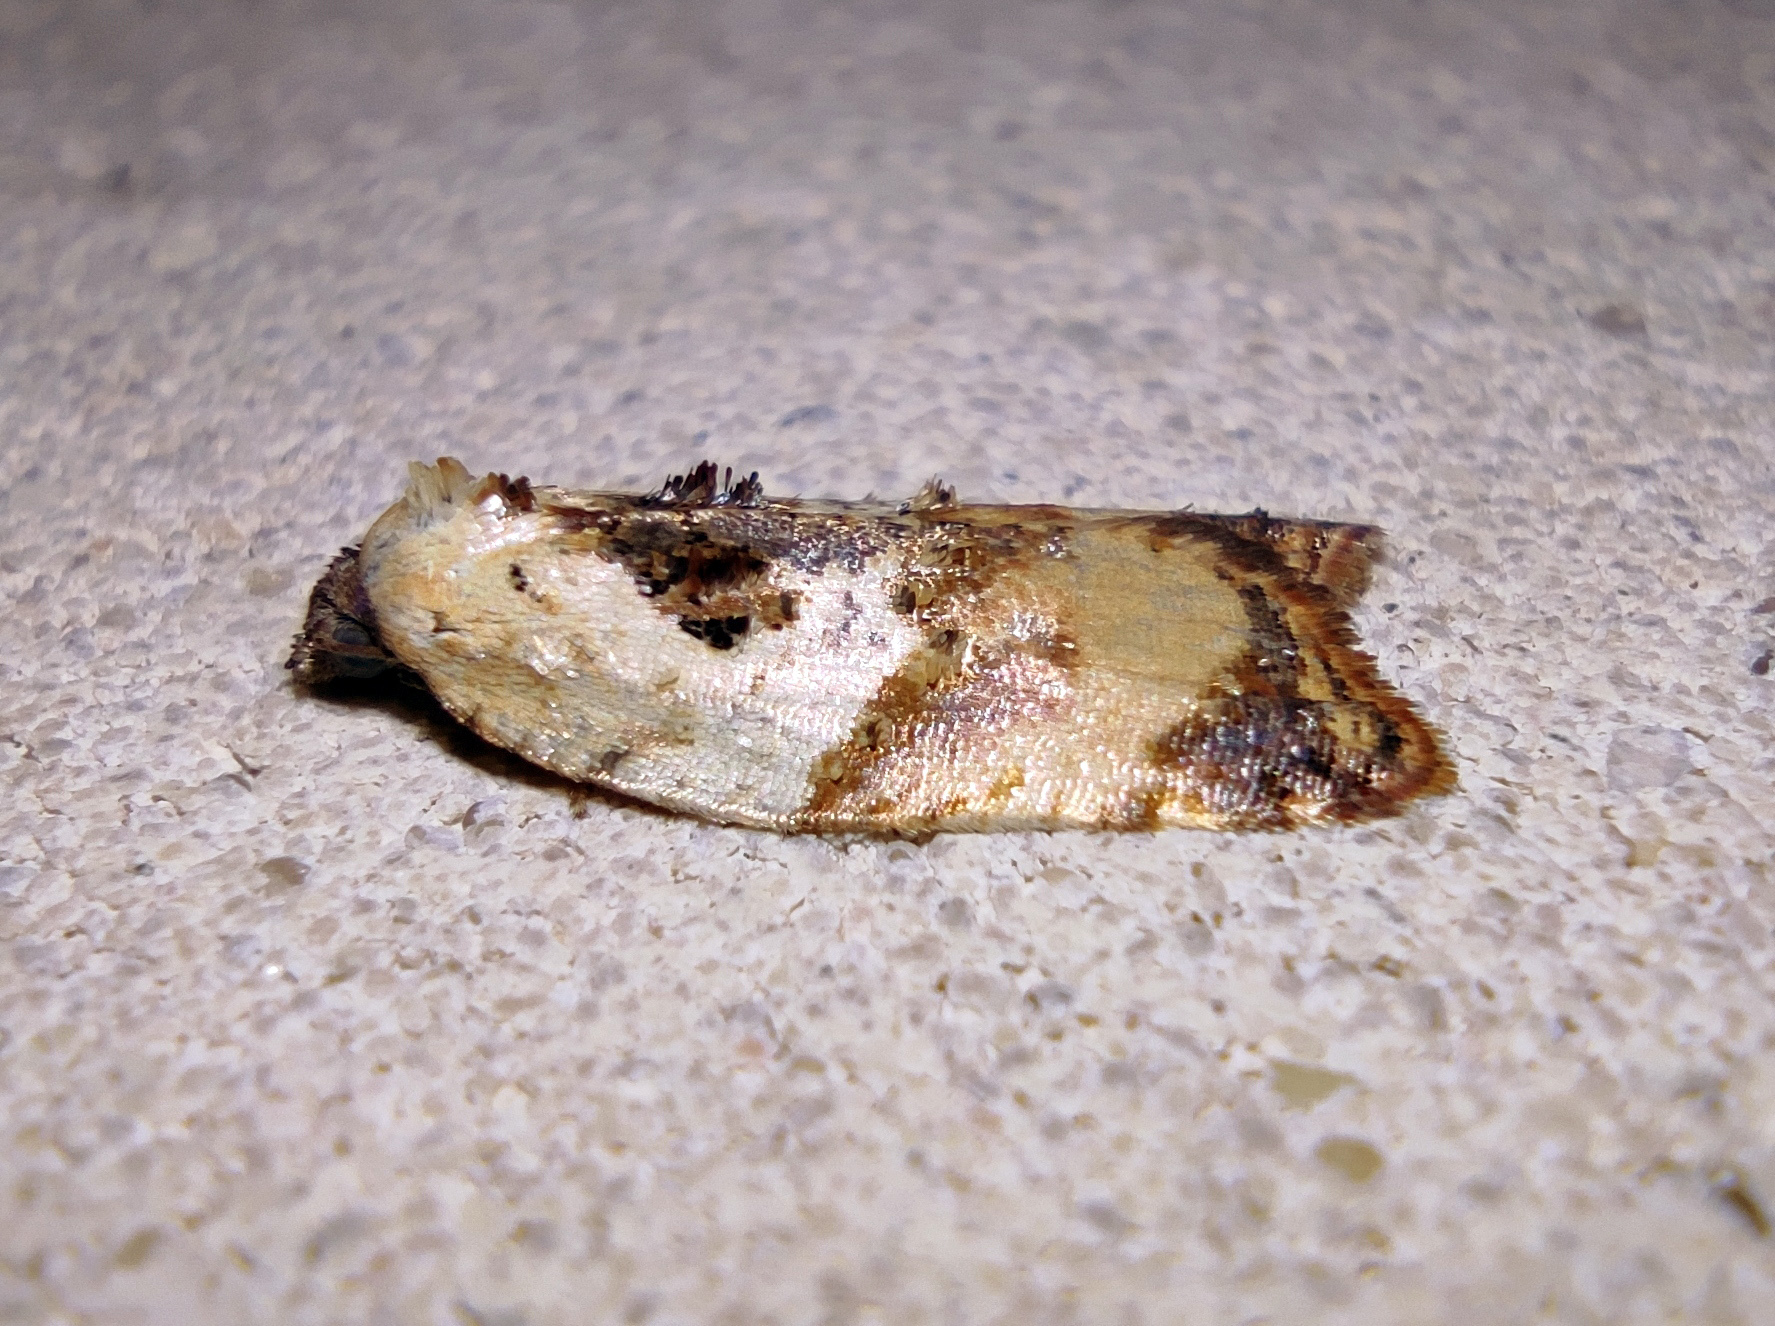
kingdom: Animalia
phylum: Arthropoda
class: Insecta
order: Lepidoptera
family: Tortricidae
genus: Acleris
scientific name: Acleris variegana
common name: Garden rose tortrix
